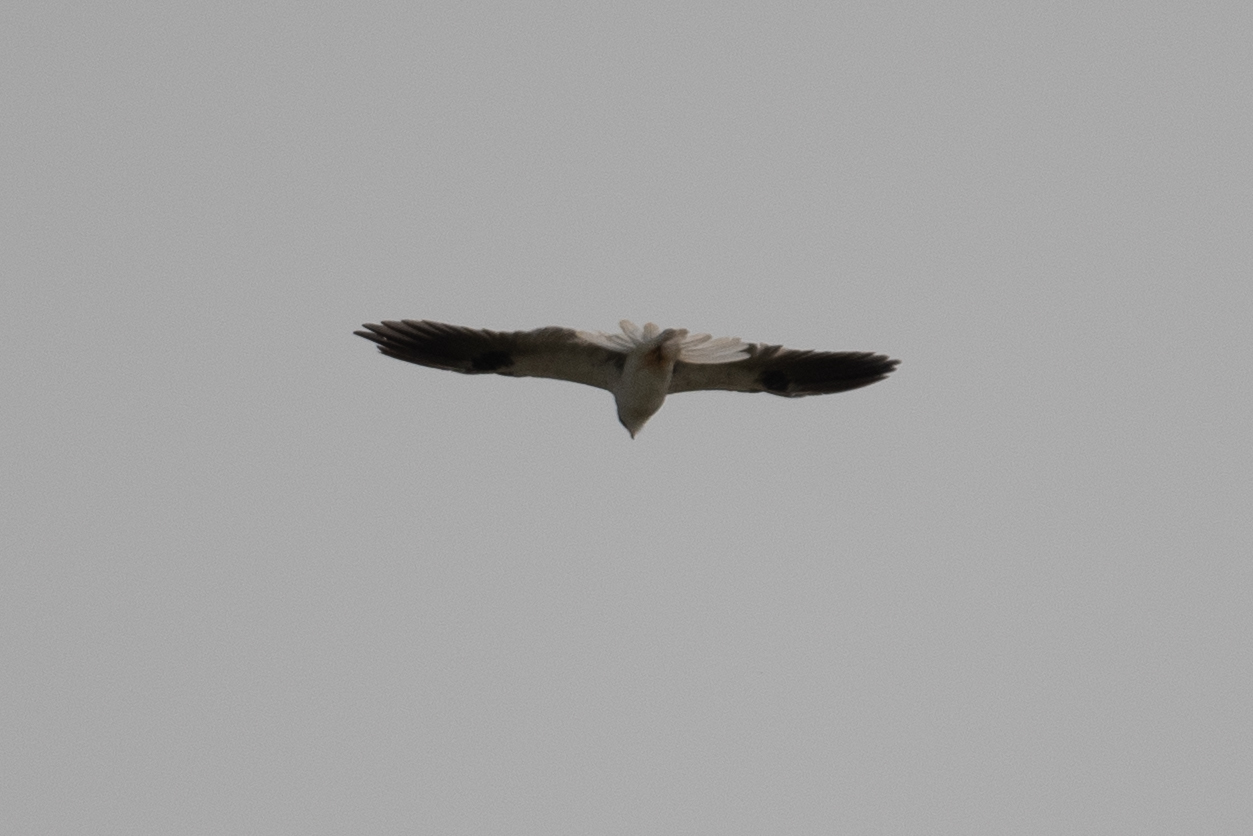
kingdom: Animalia
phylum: Chordata
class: Aves
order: Accipitriformes
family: Accipitridae
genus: Elanus
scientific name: Elanus leucurus
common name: White-tailed kite
